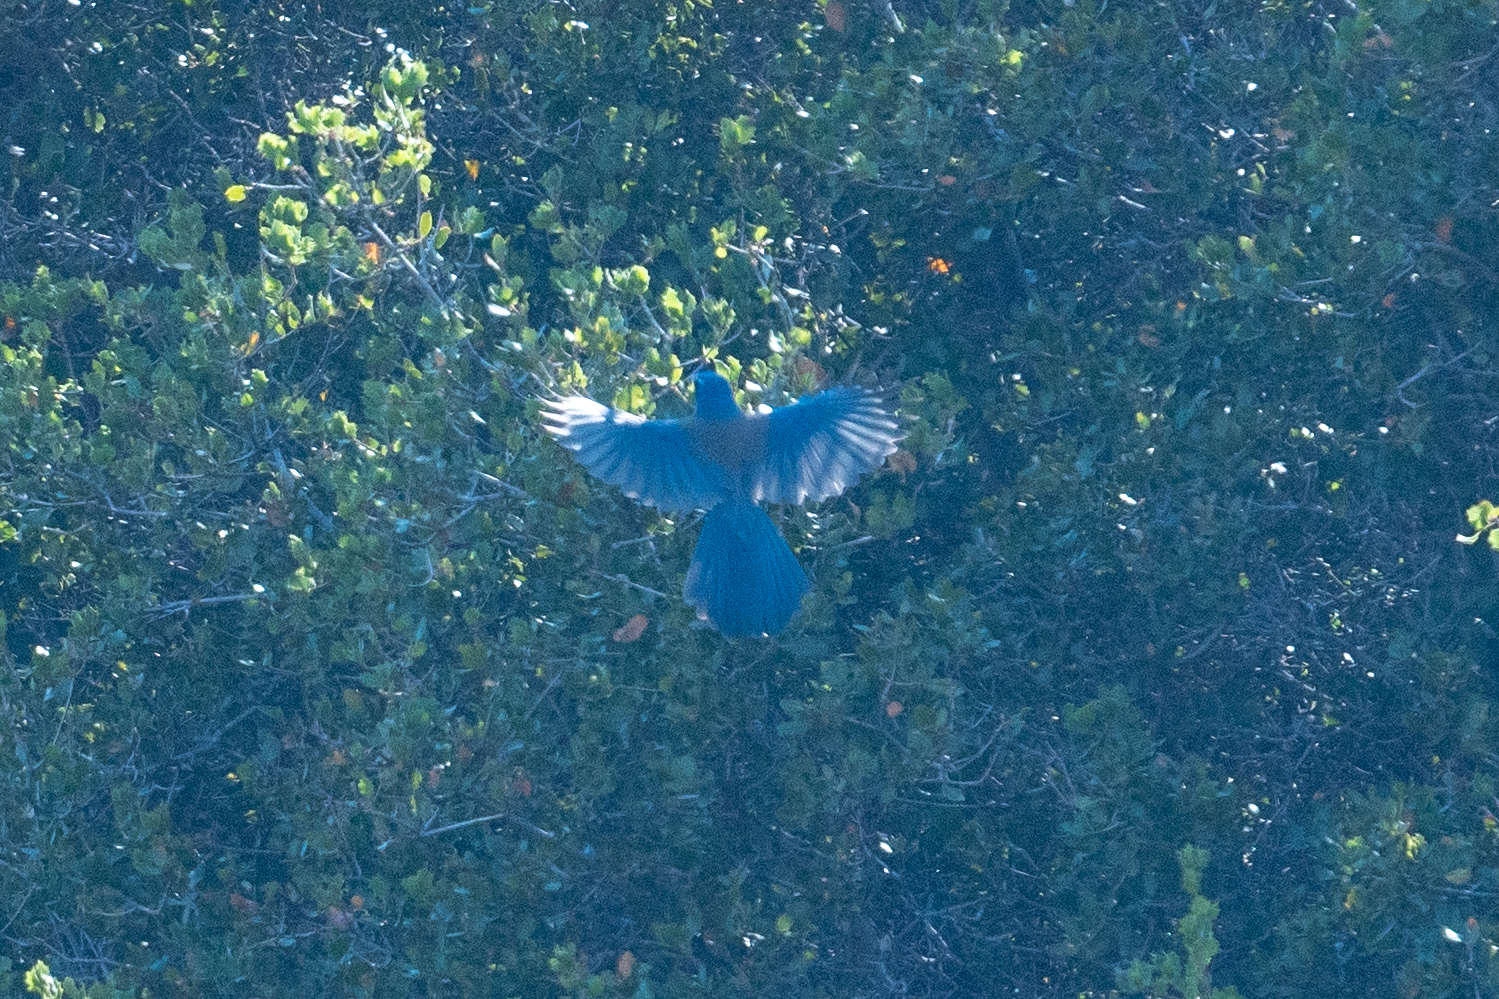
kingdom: Animalia
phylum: Chordata
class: Aves
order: Passeriformes
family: Corvidae
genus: Aphelocoma
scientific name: Aphelocoma californica
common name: California scrub-jay
